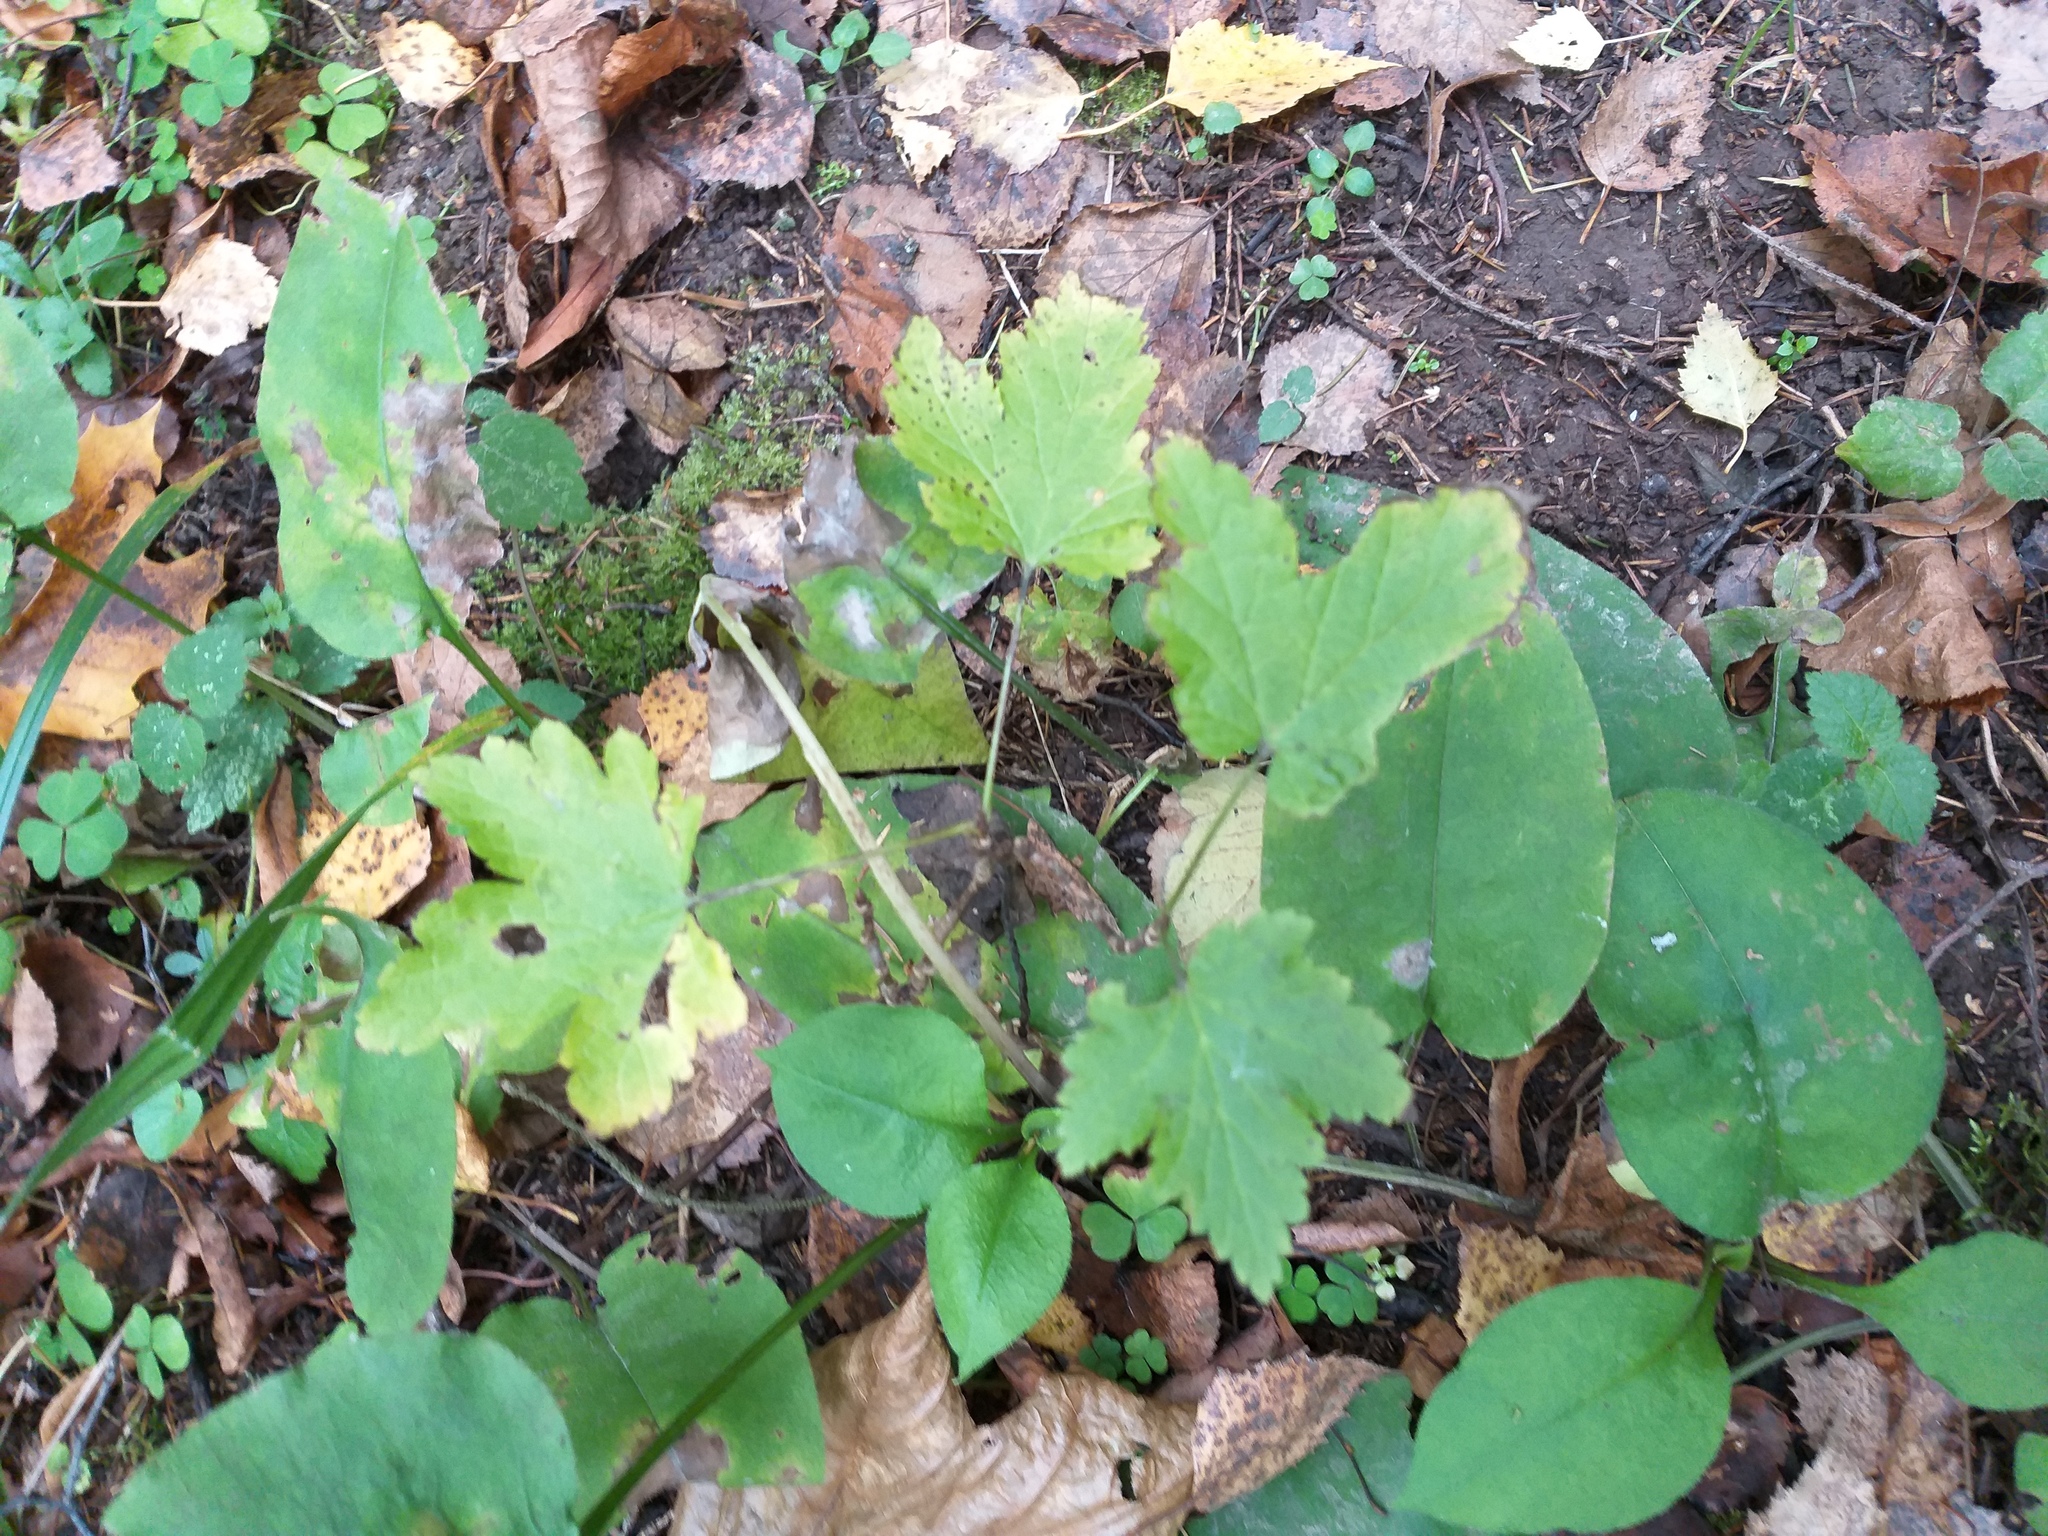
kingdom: Plantae
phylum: Tracheophyta
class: Magnoliopsida
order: Saxifragales
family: Grossulariaceae
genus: Ribes
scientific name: Ribes spicatum
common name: Downy currant
